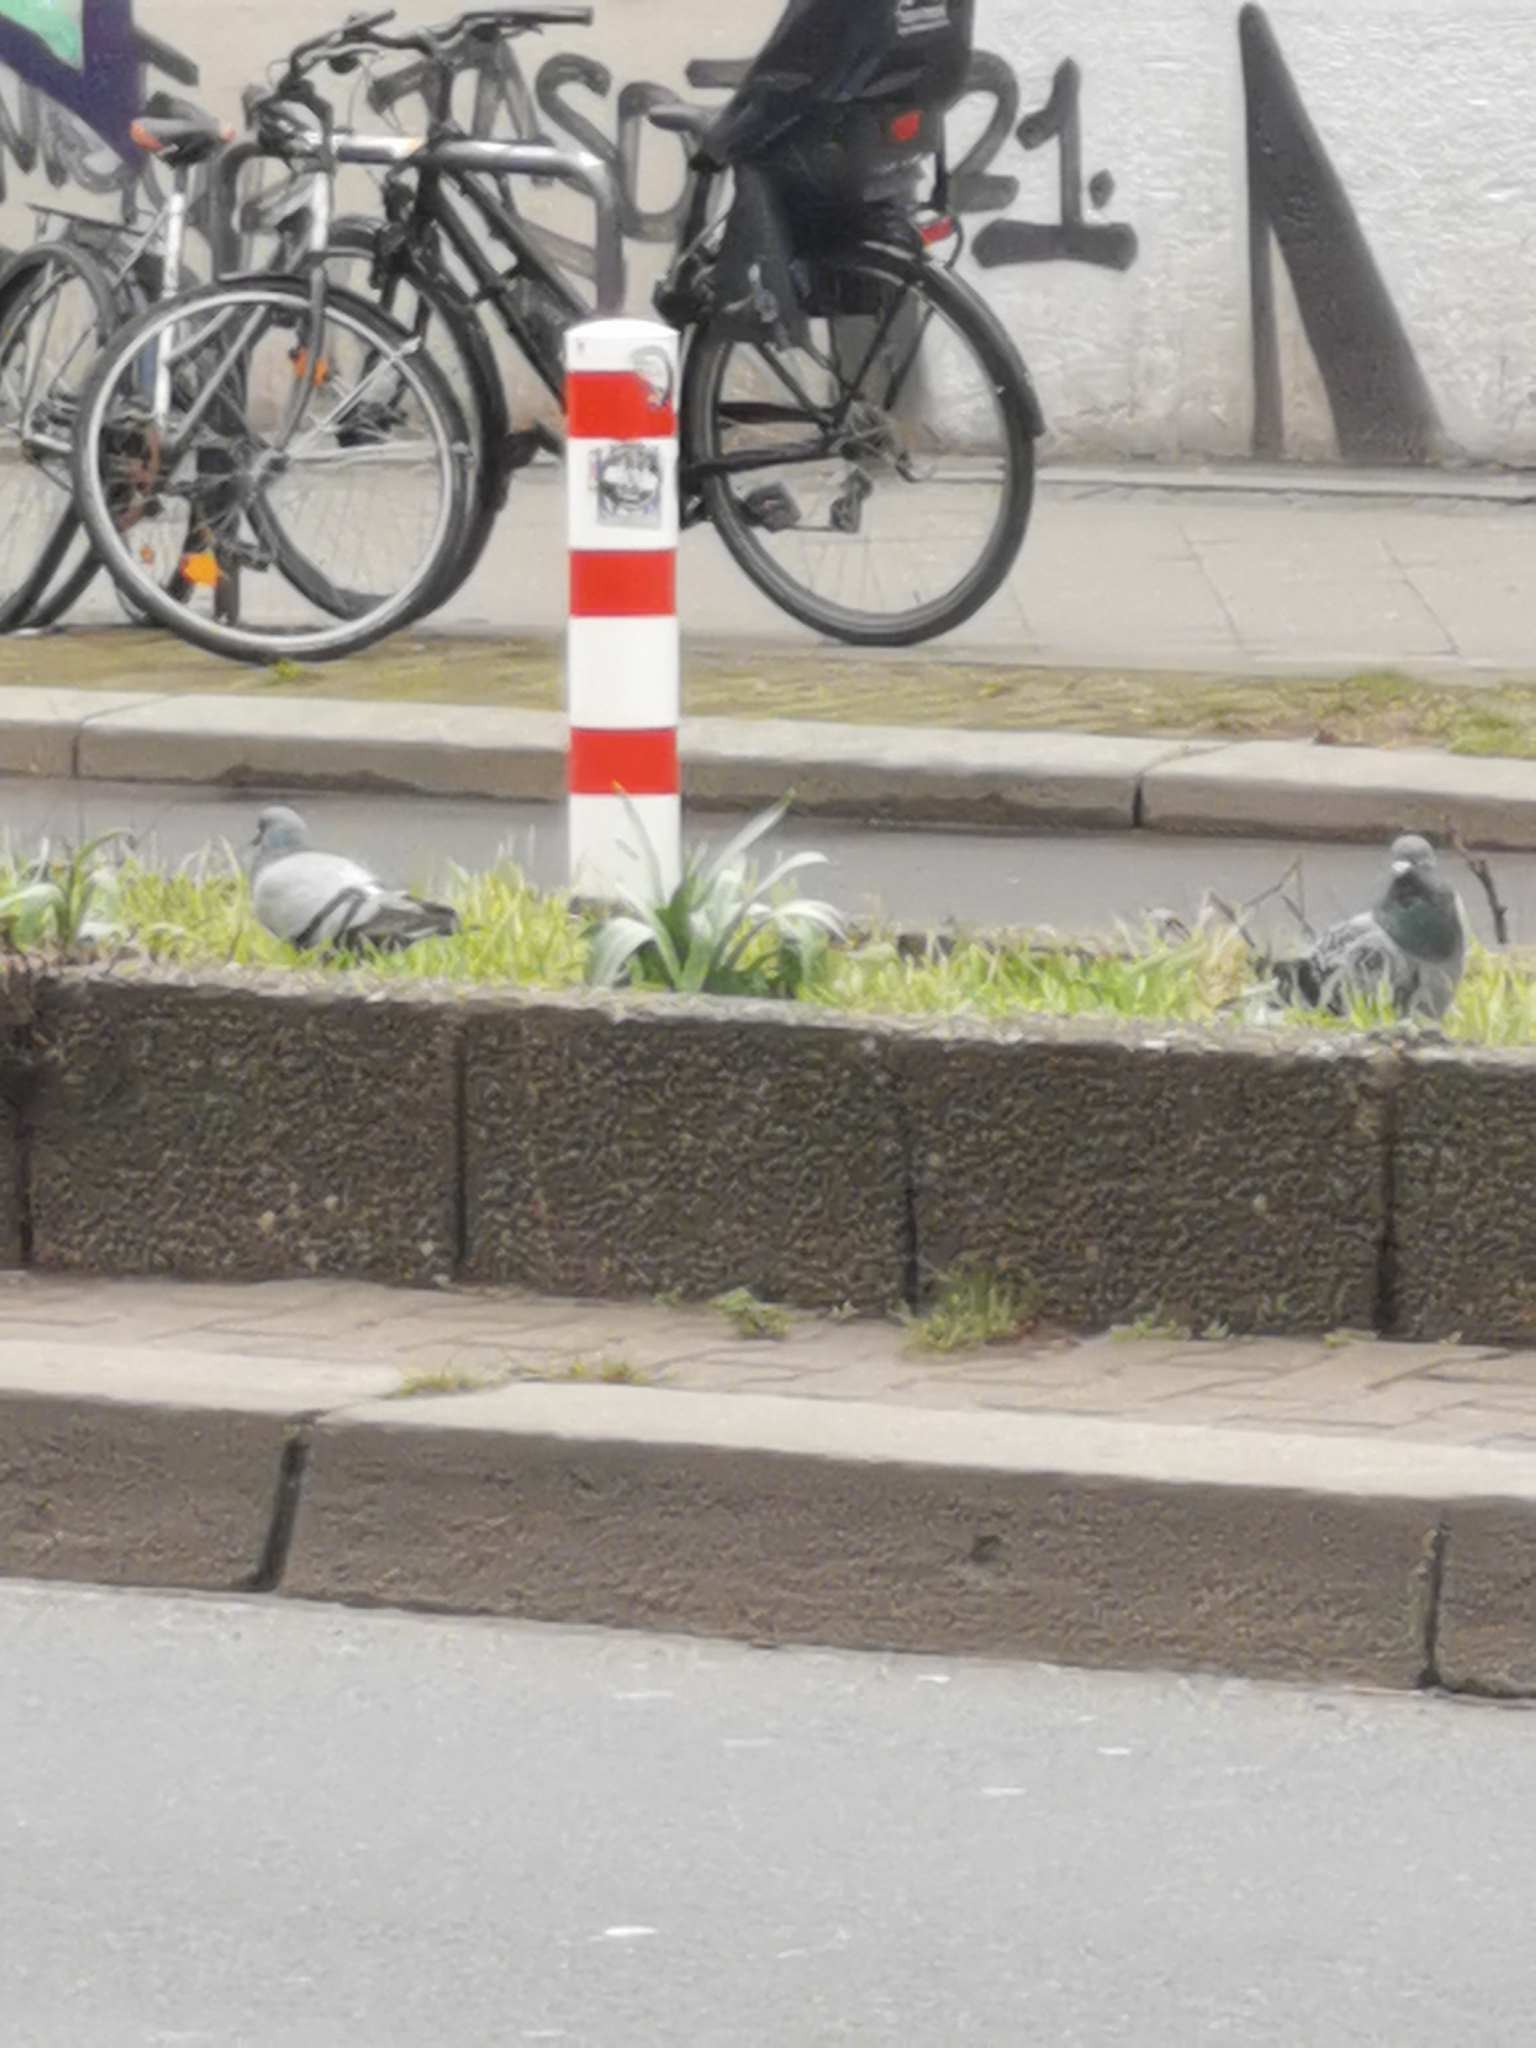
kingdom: Animalia
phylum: Chordata
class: Aves
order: Columbiformes
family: Columbidae
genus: Columba
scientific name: Columba livia
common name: Rock pigeon
